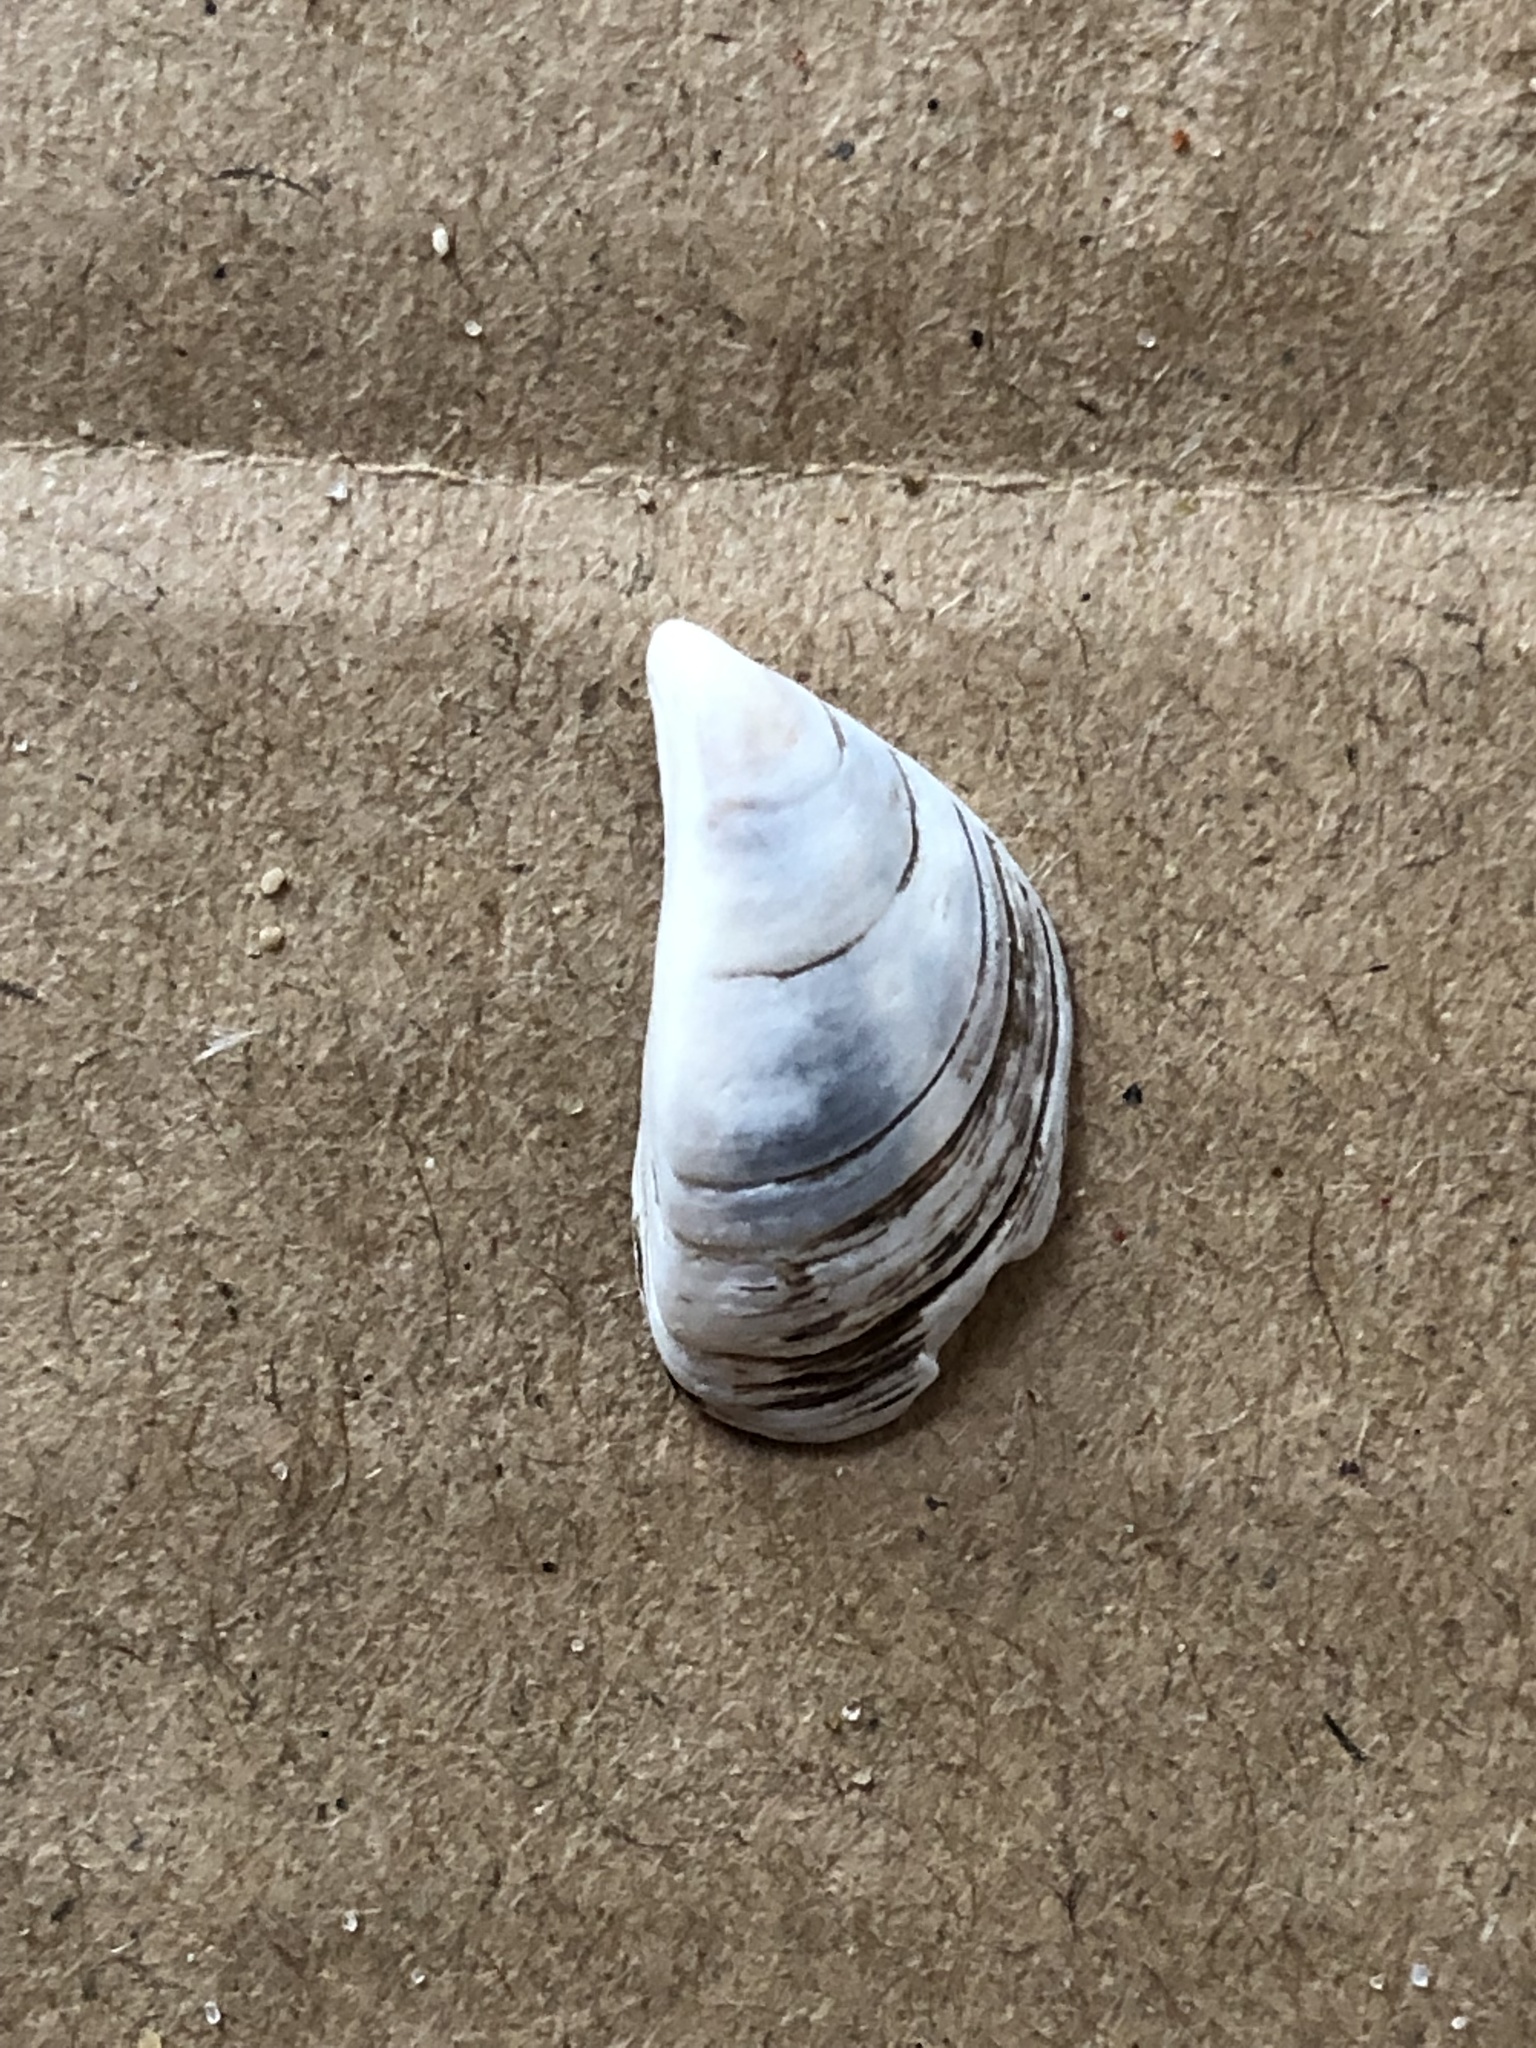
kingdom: Animalia
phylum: Mollusca
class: Bivalvia
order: Myida
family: Dreissenidae
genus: Dreissena
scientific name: Dreissena polymorpha
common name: Zebra mussel
